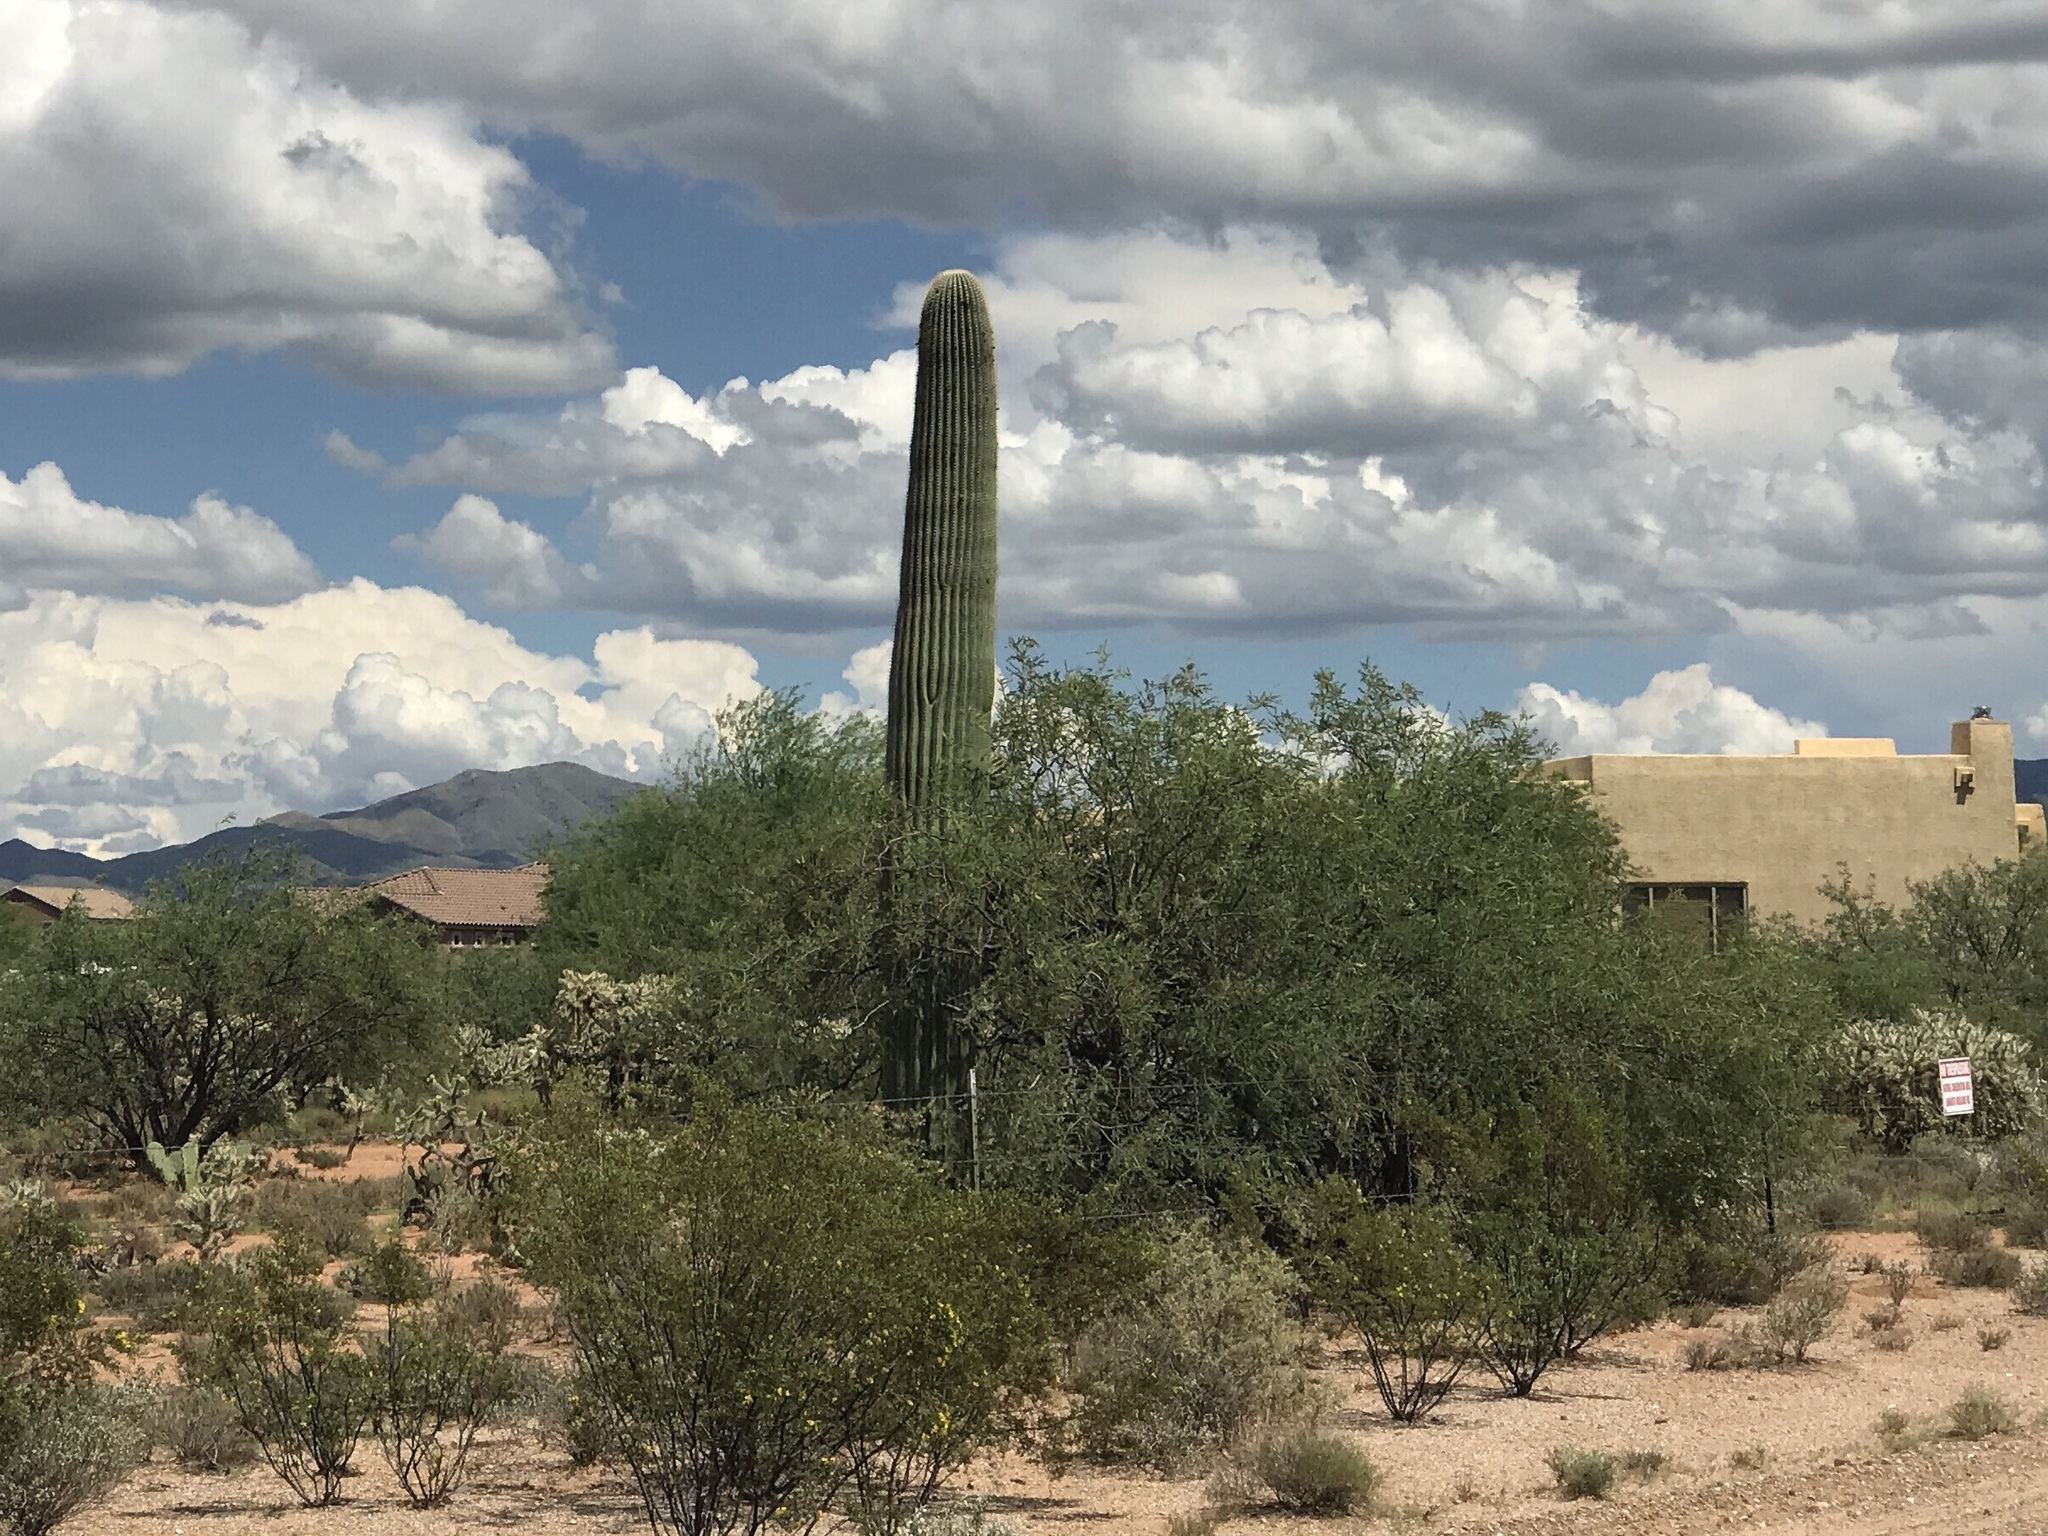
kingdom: Plantae
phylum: Tracheophyta
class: Magnoliopsida
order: Caryophyllales
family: Cactaceae
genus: Carnegiea
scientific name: Carnegiea gigantea
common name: Saguaro
